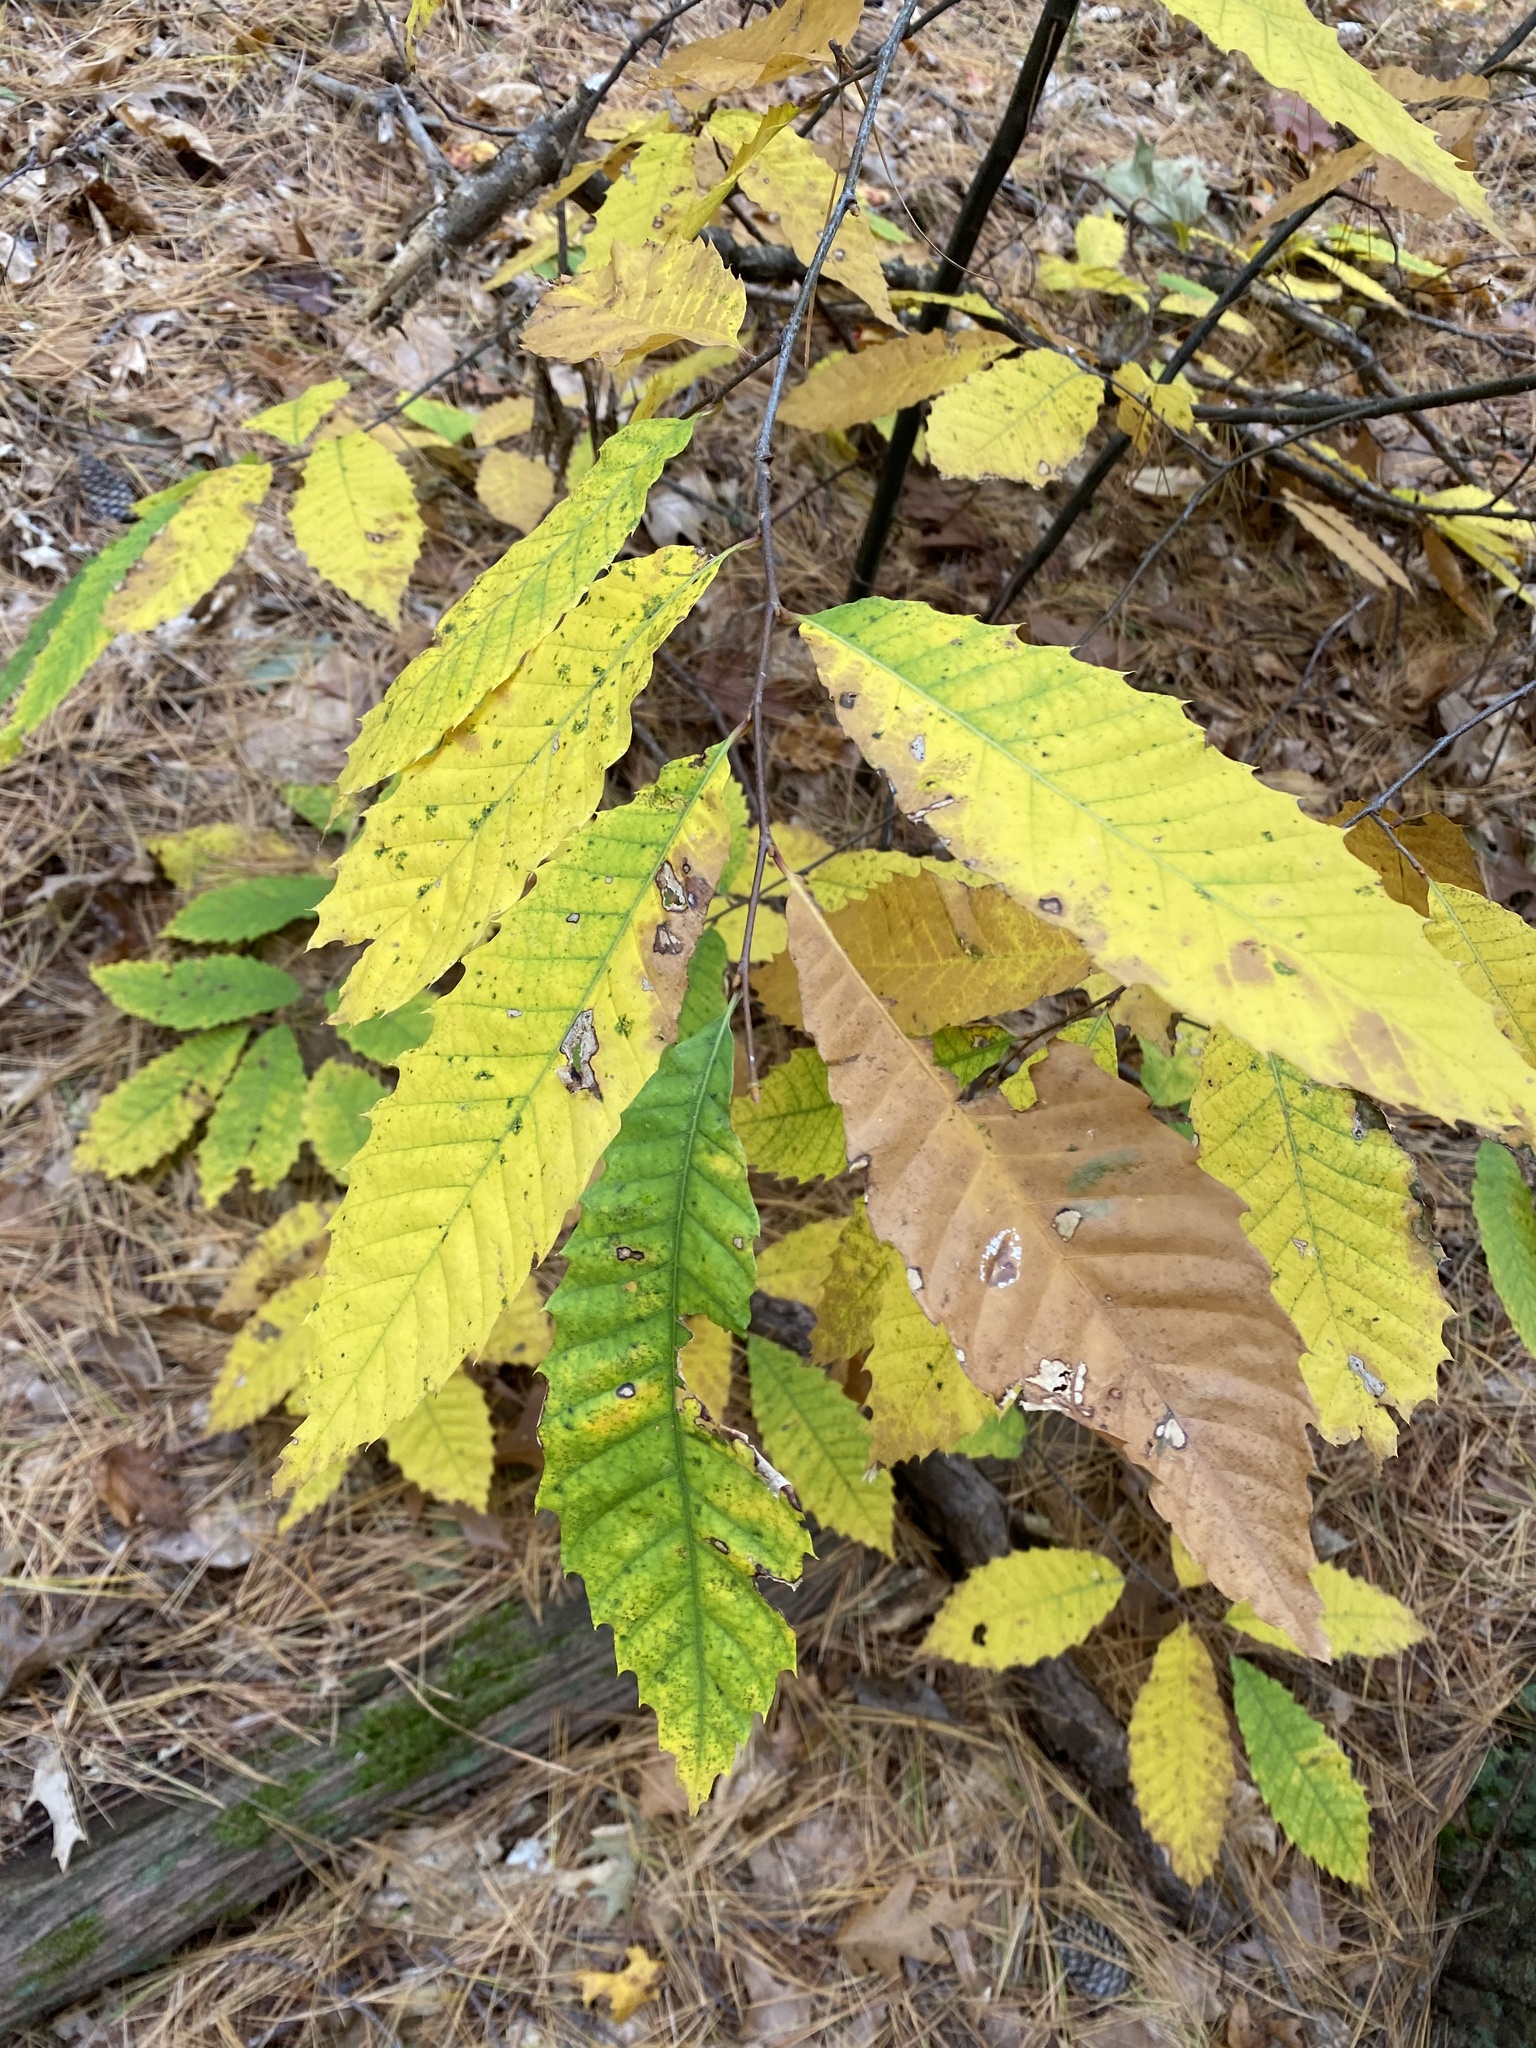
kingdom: Plantae
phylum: Tracheophyta
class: Magnoliopsida
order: Fagales
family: Fagaceae
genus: Castanea
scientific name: Castanea dentata
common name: American chestnut
